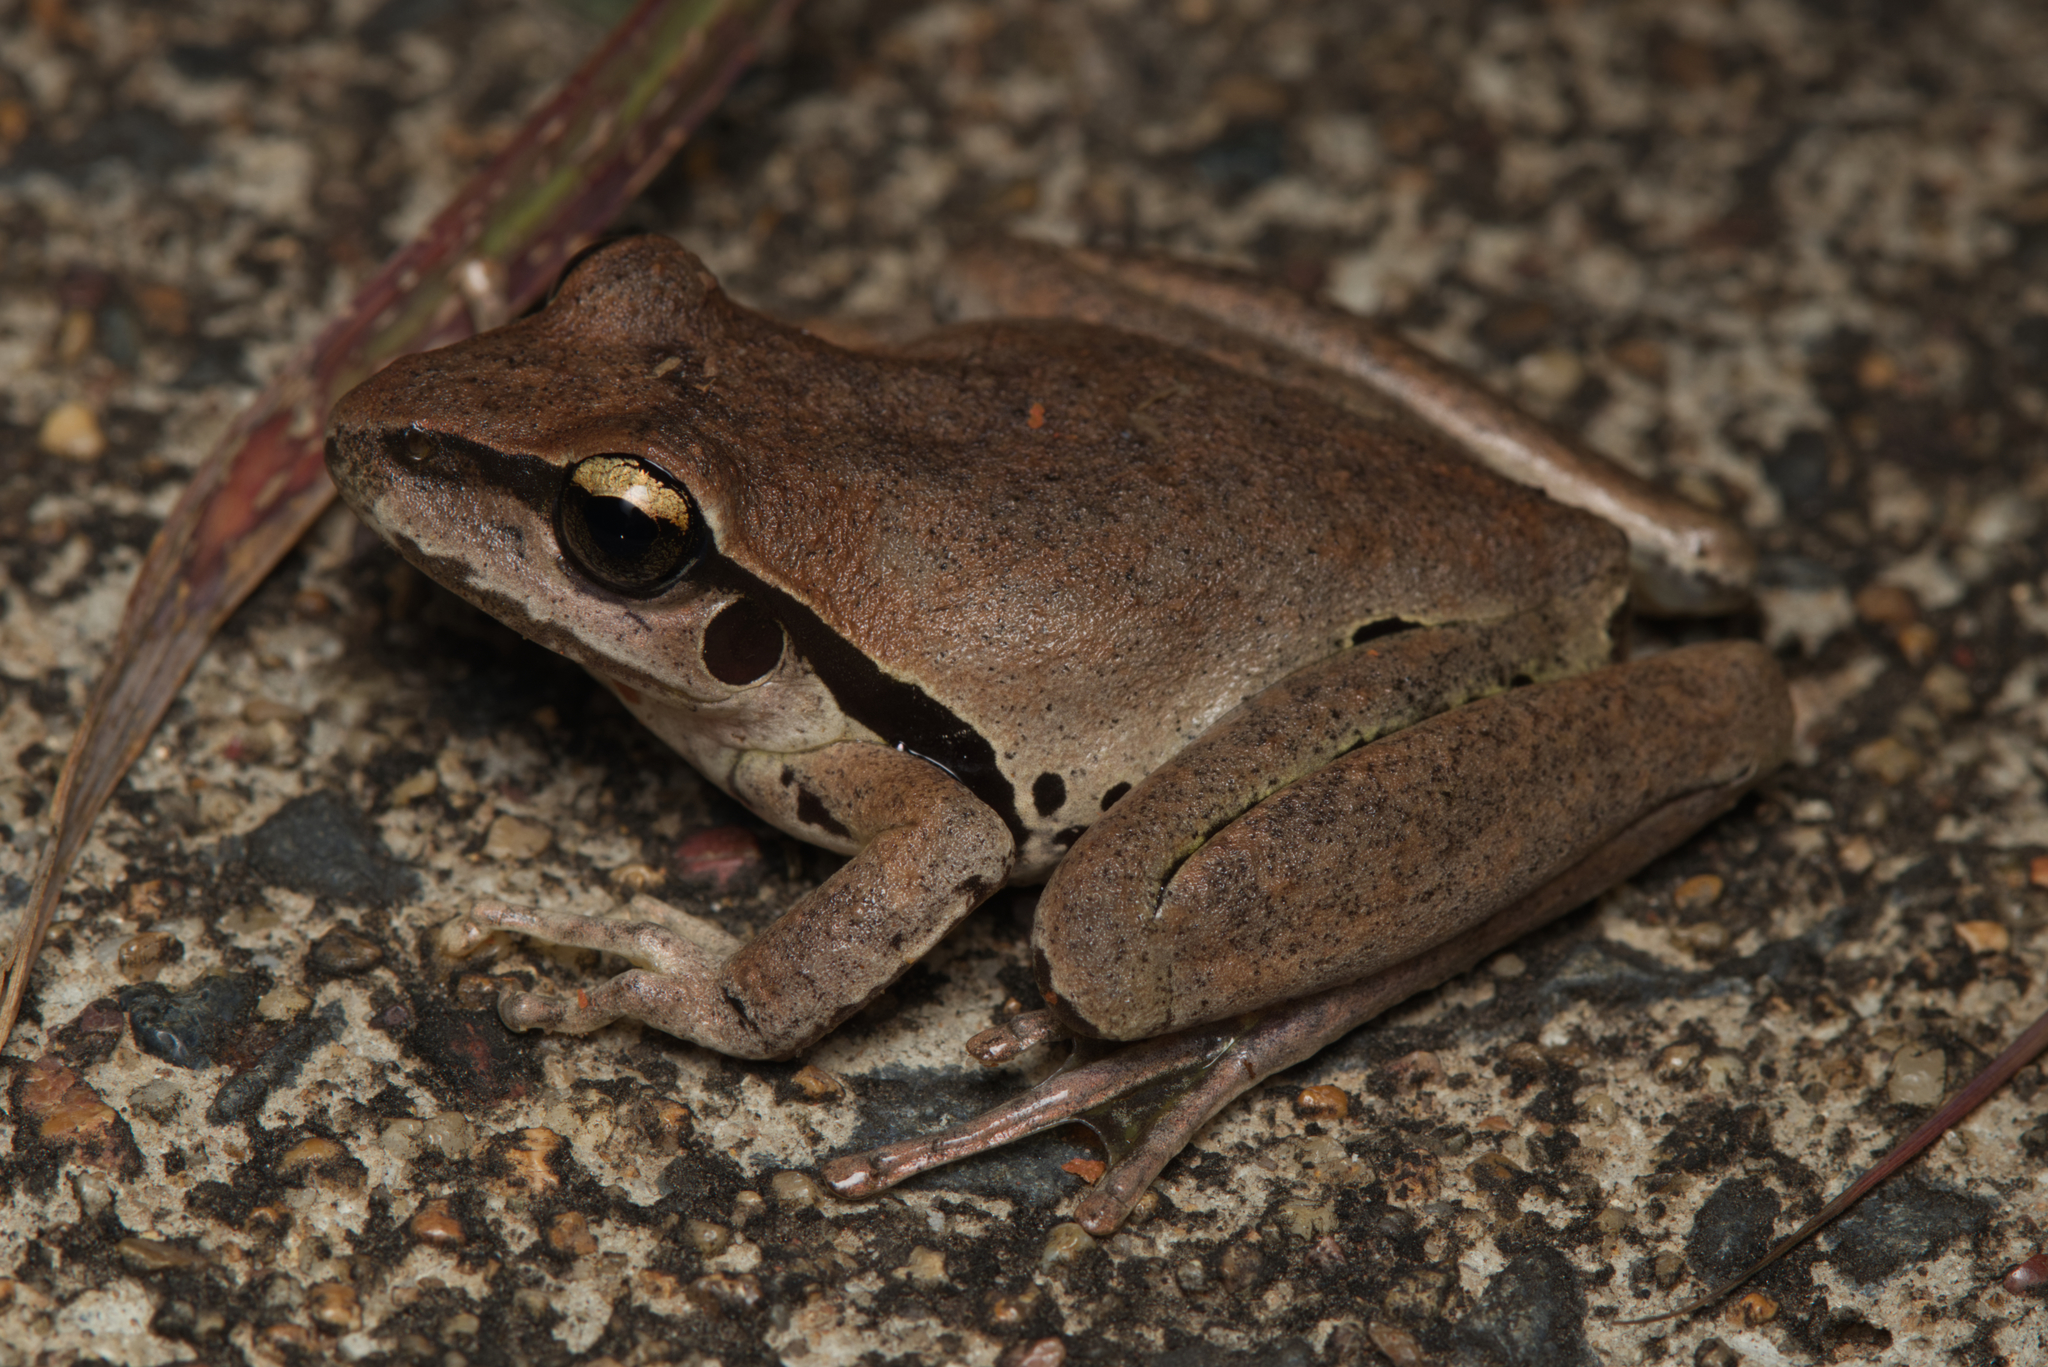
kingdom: Animalia
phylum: Chordata
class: Amphibia
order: Anura
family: Pelodryadidae
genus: Ranoidea
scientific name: Ranoidea wilcoxii
